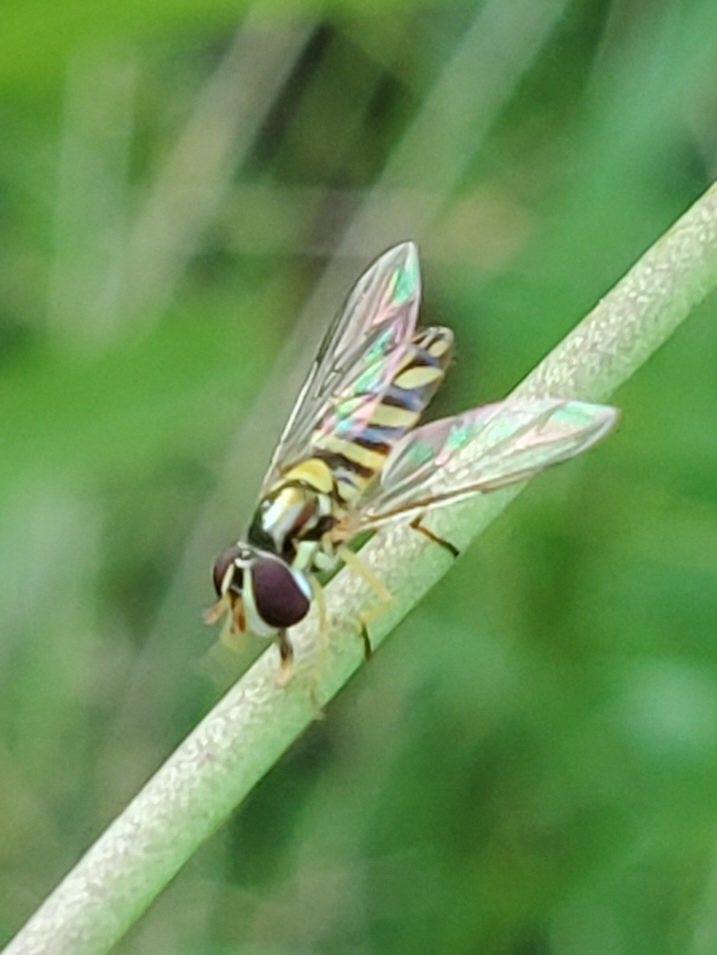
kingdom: Animalia
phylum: Arthropoda
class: Insecta
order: Diptera
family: Syrphidae
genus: Allograpta
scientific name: Allograpta obliqua
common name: Common oblique syrphid
